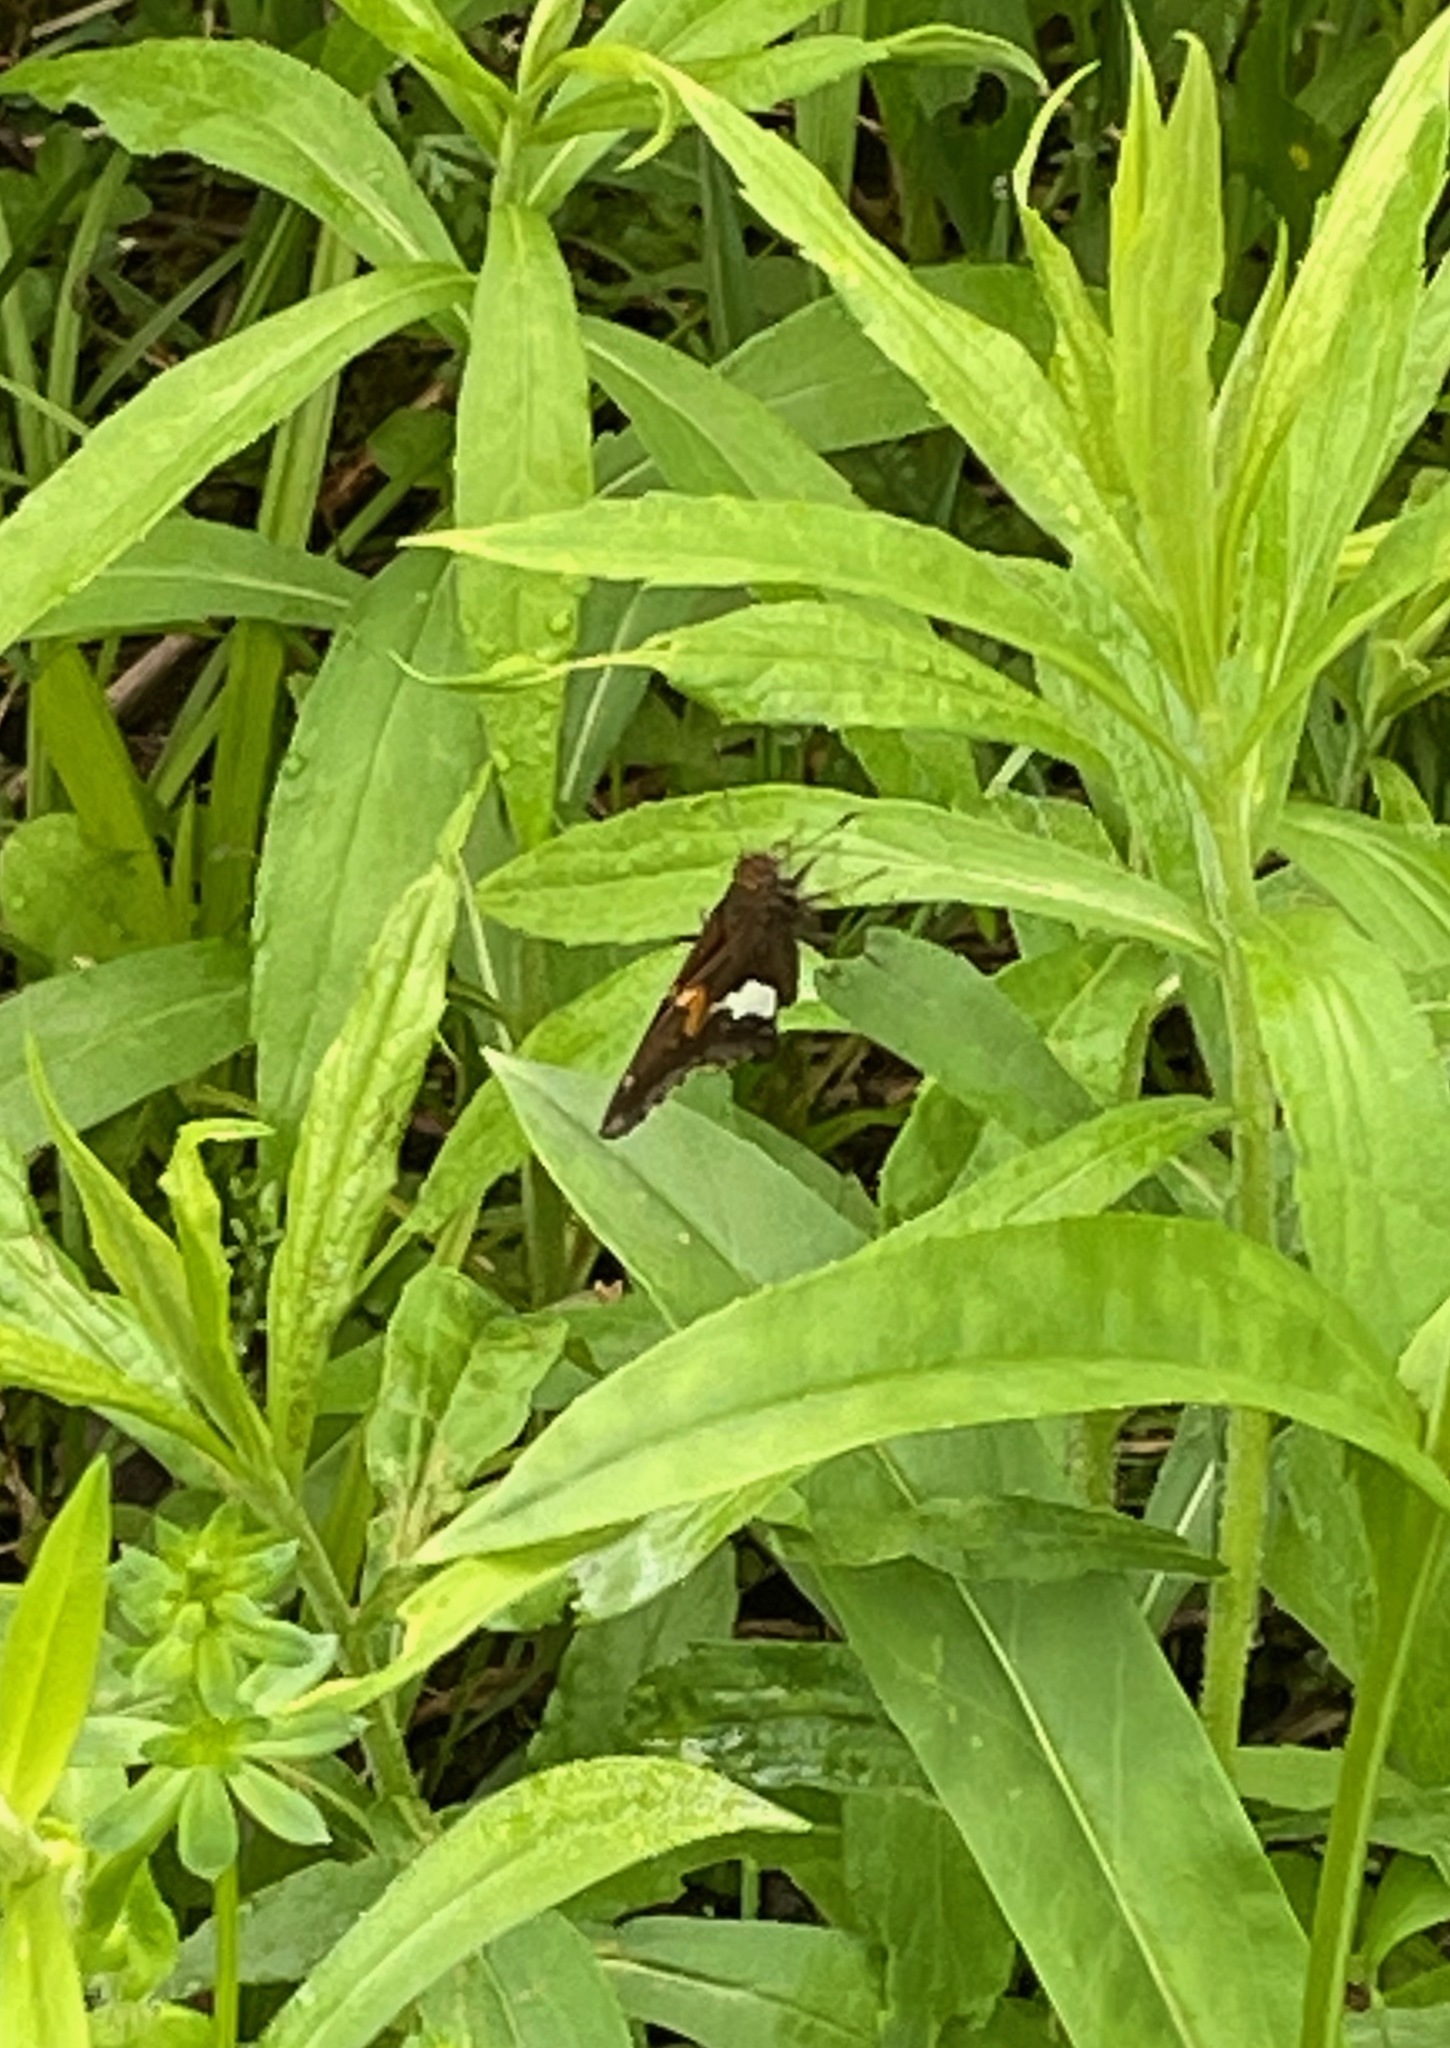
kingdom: Animalia
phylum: Arthropoda
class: Insecta
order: Lepidoptera
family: Hesperiidae
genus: Epargyreus
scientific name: Epargyreus clarus
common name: Silver-spotted skipper
